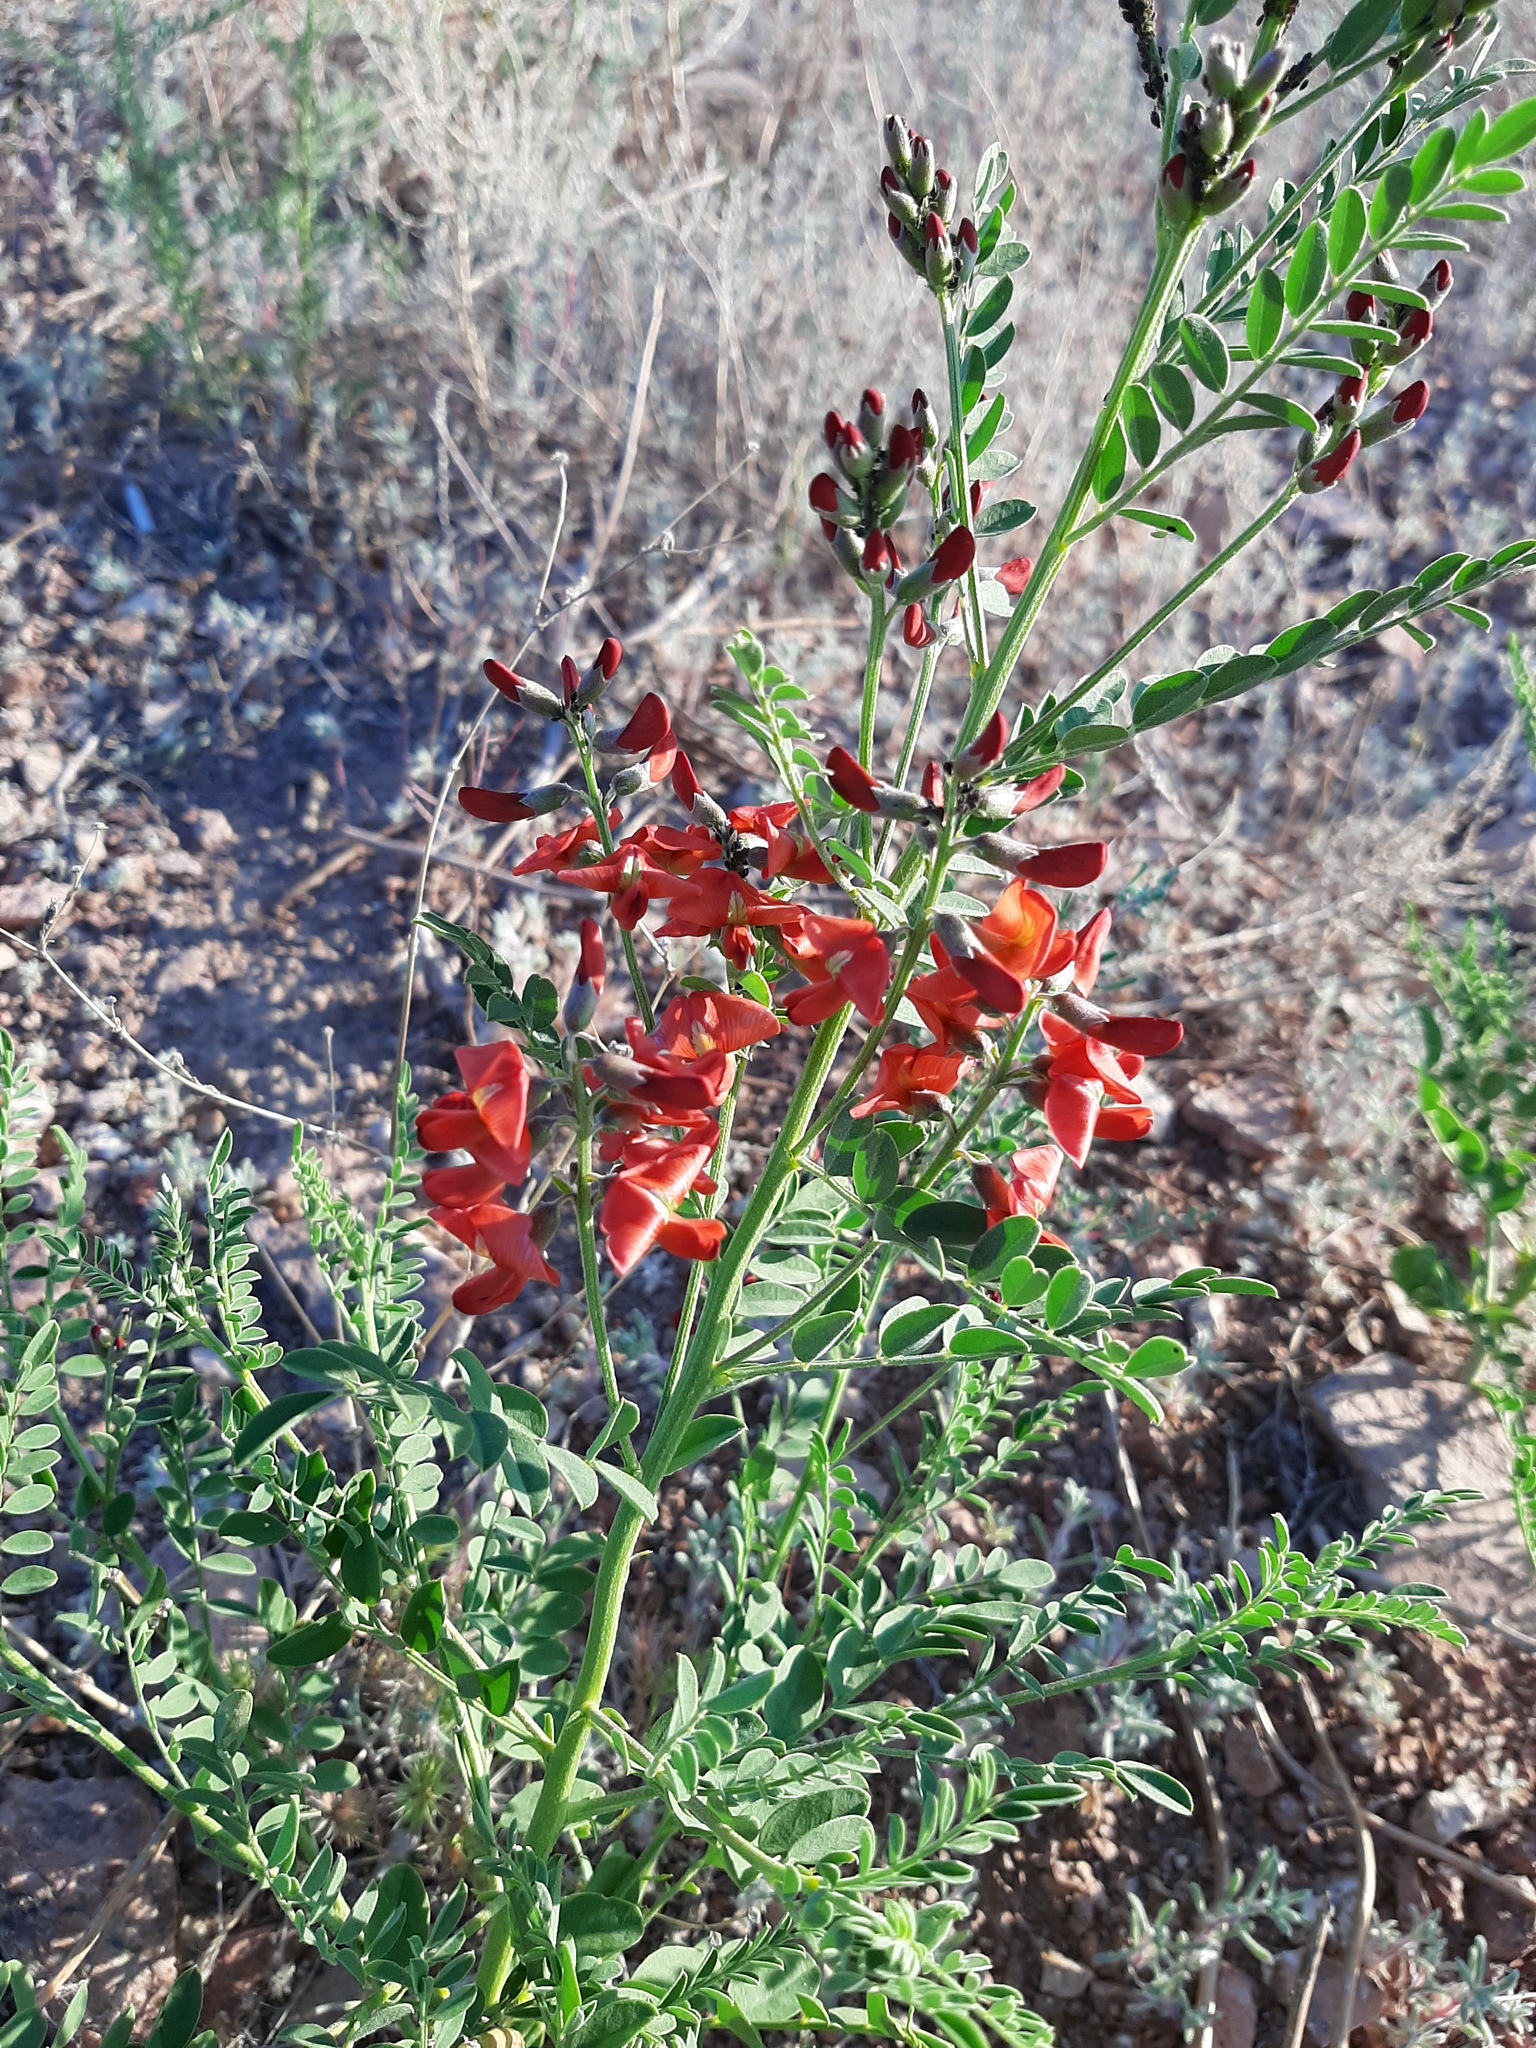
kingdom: Plantae
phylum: Tracheophyta
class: Magnoliopsida
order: Fabales
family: Fabaceae
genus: Sphaerophysa
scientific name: Sphaerophysa salsula
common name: Alkali swainsonpea
